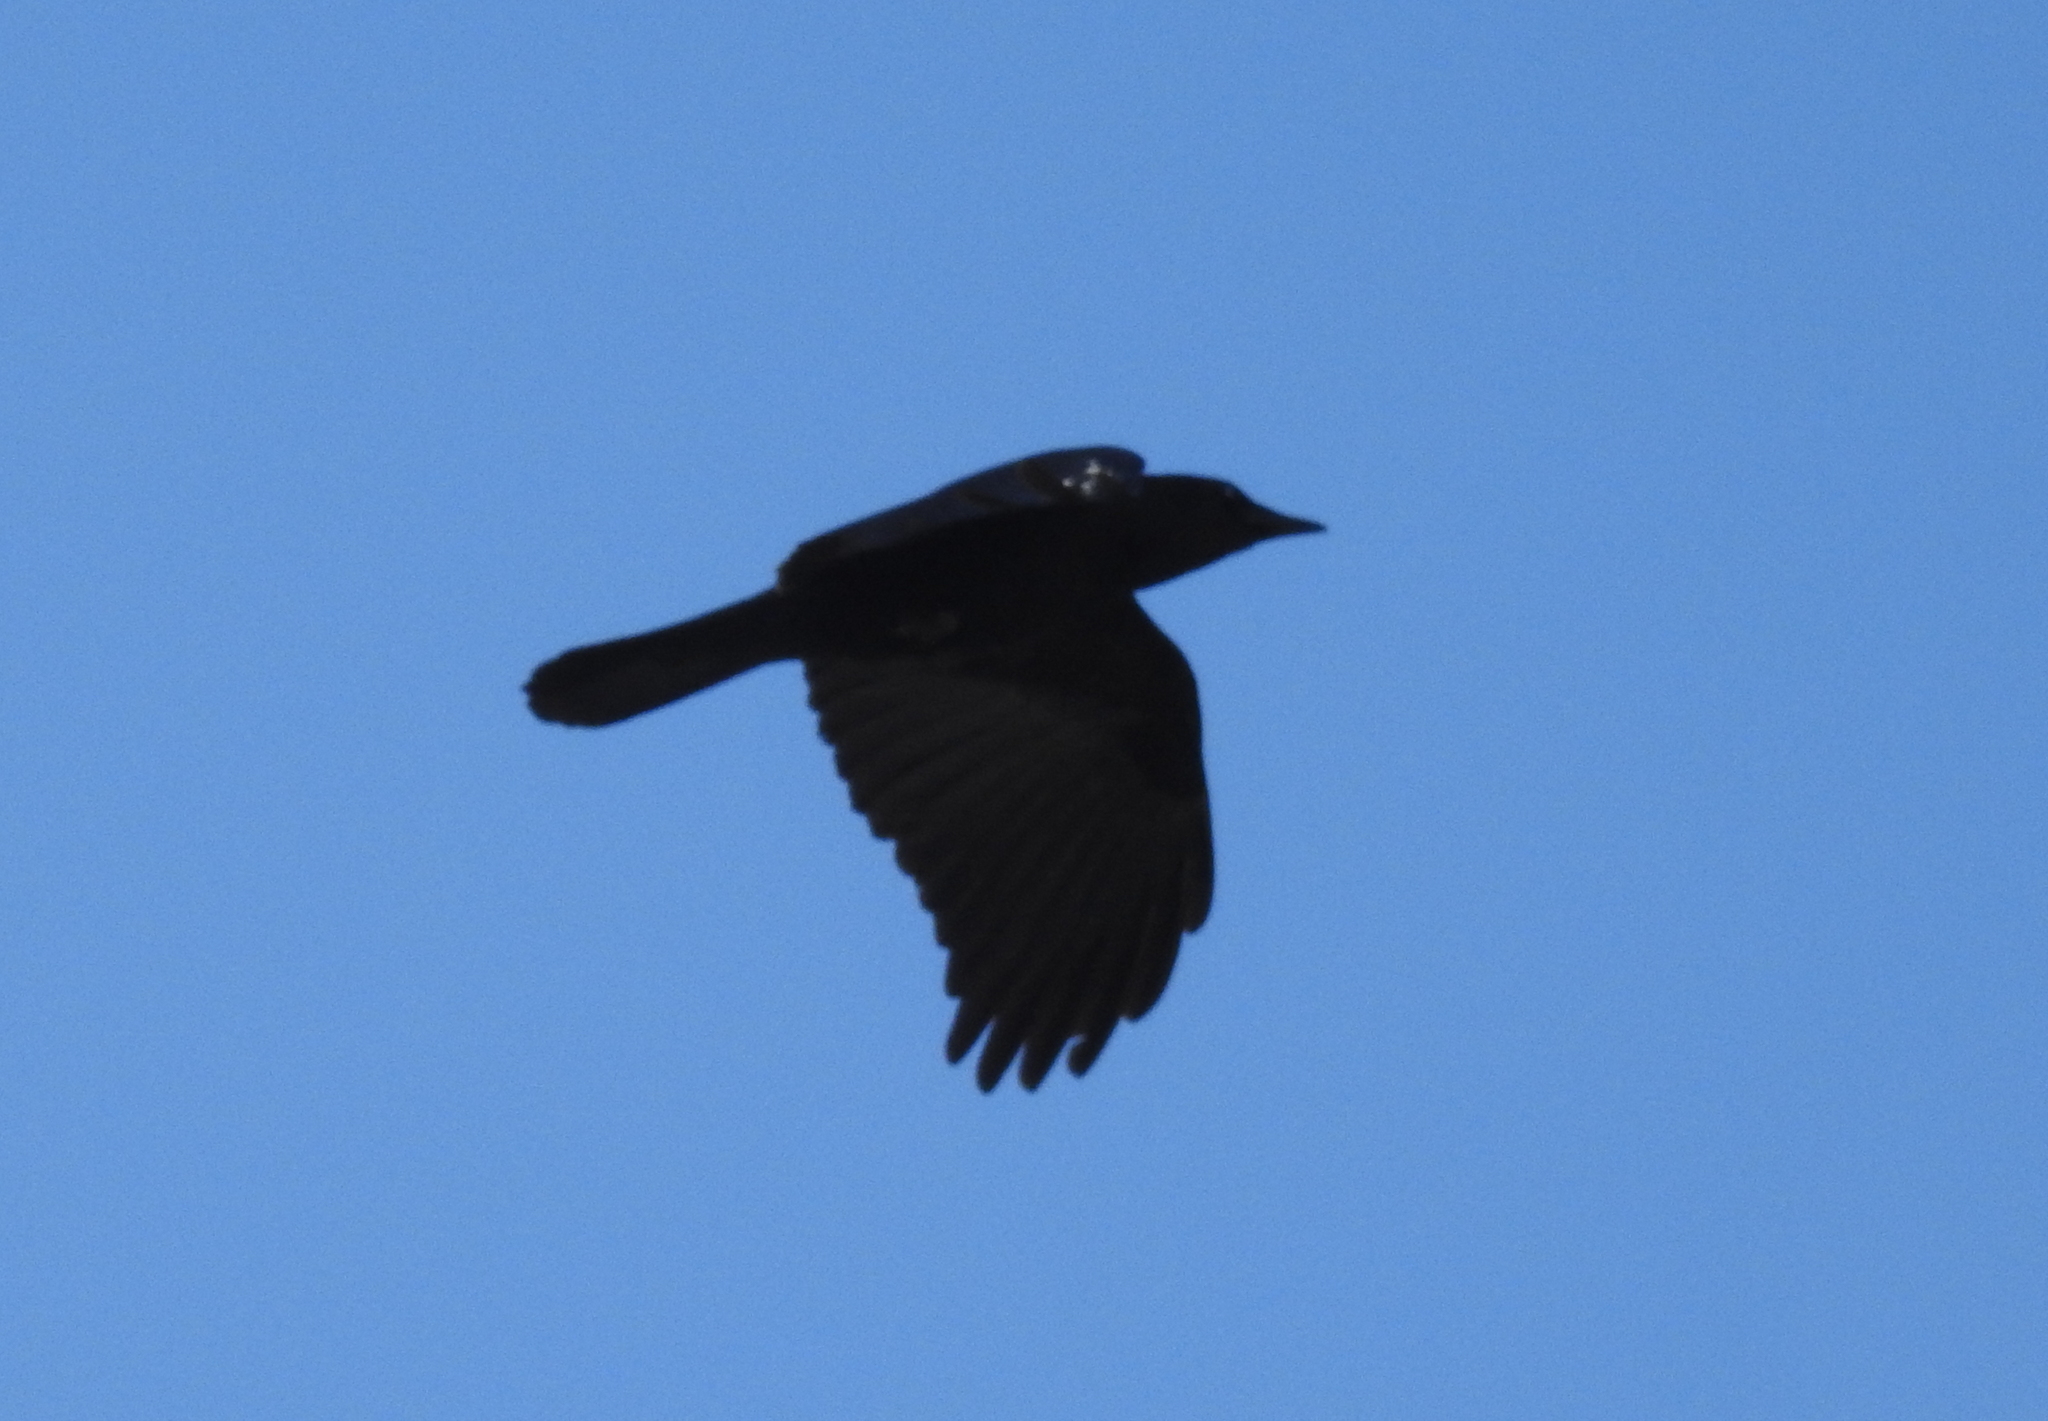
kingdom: Animalia
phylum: Chordata
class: Aves
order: Passeriformes
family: Corvidae
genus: Corvus
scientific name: Corvus brachyrhynchos
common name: American crow
